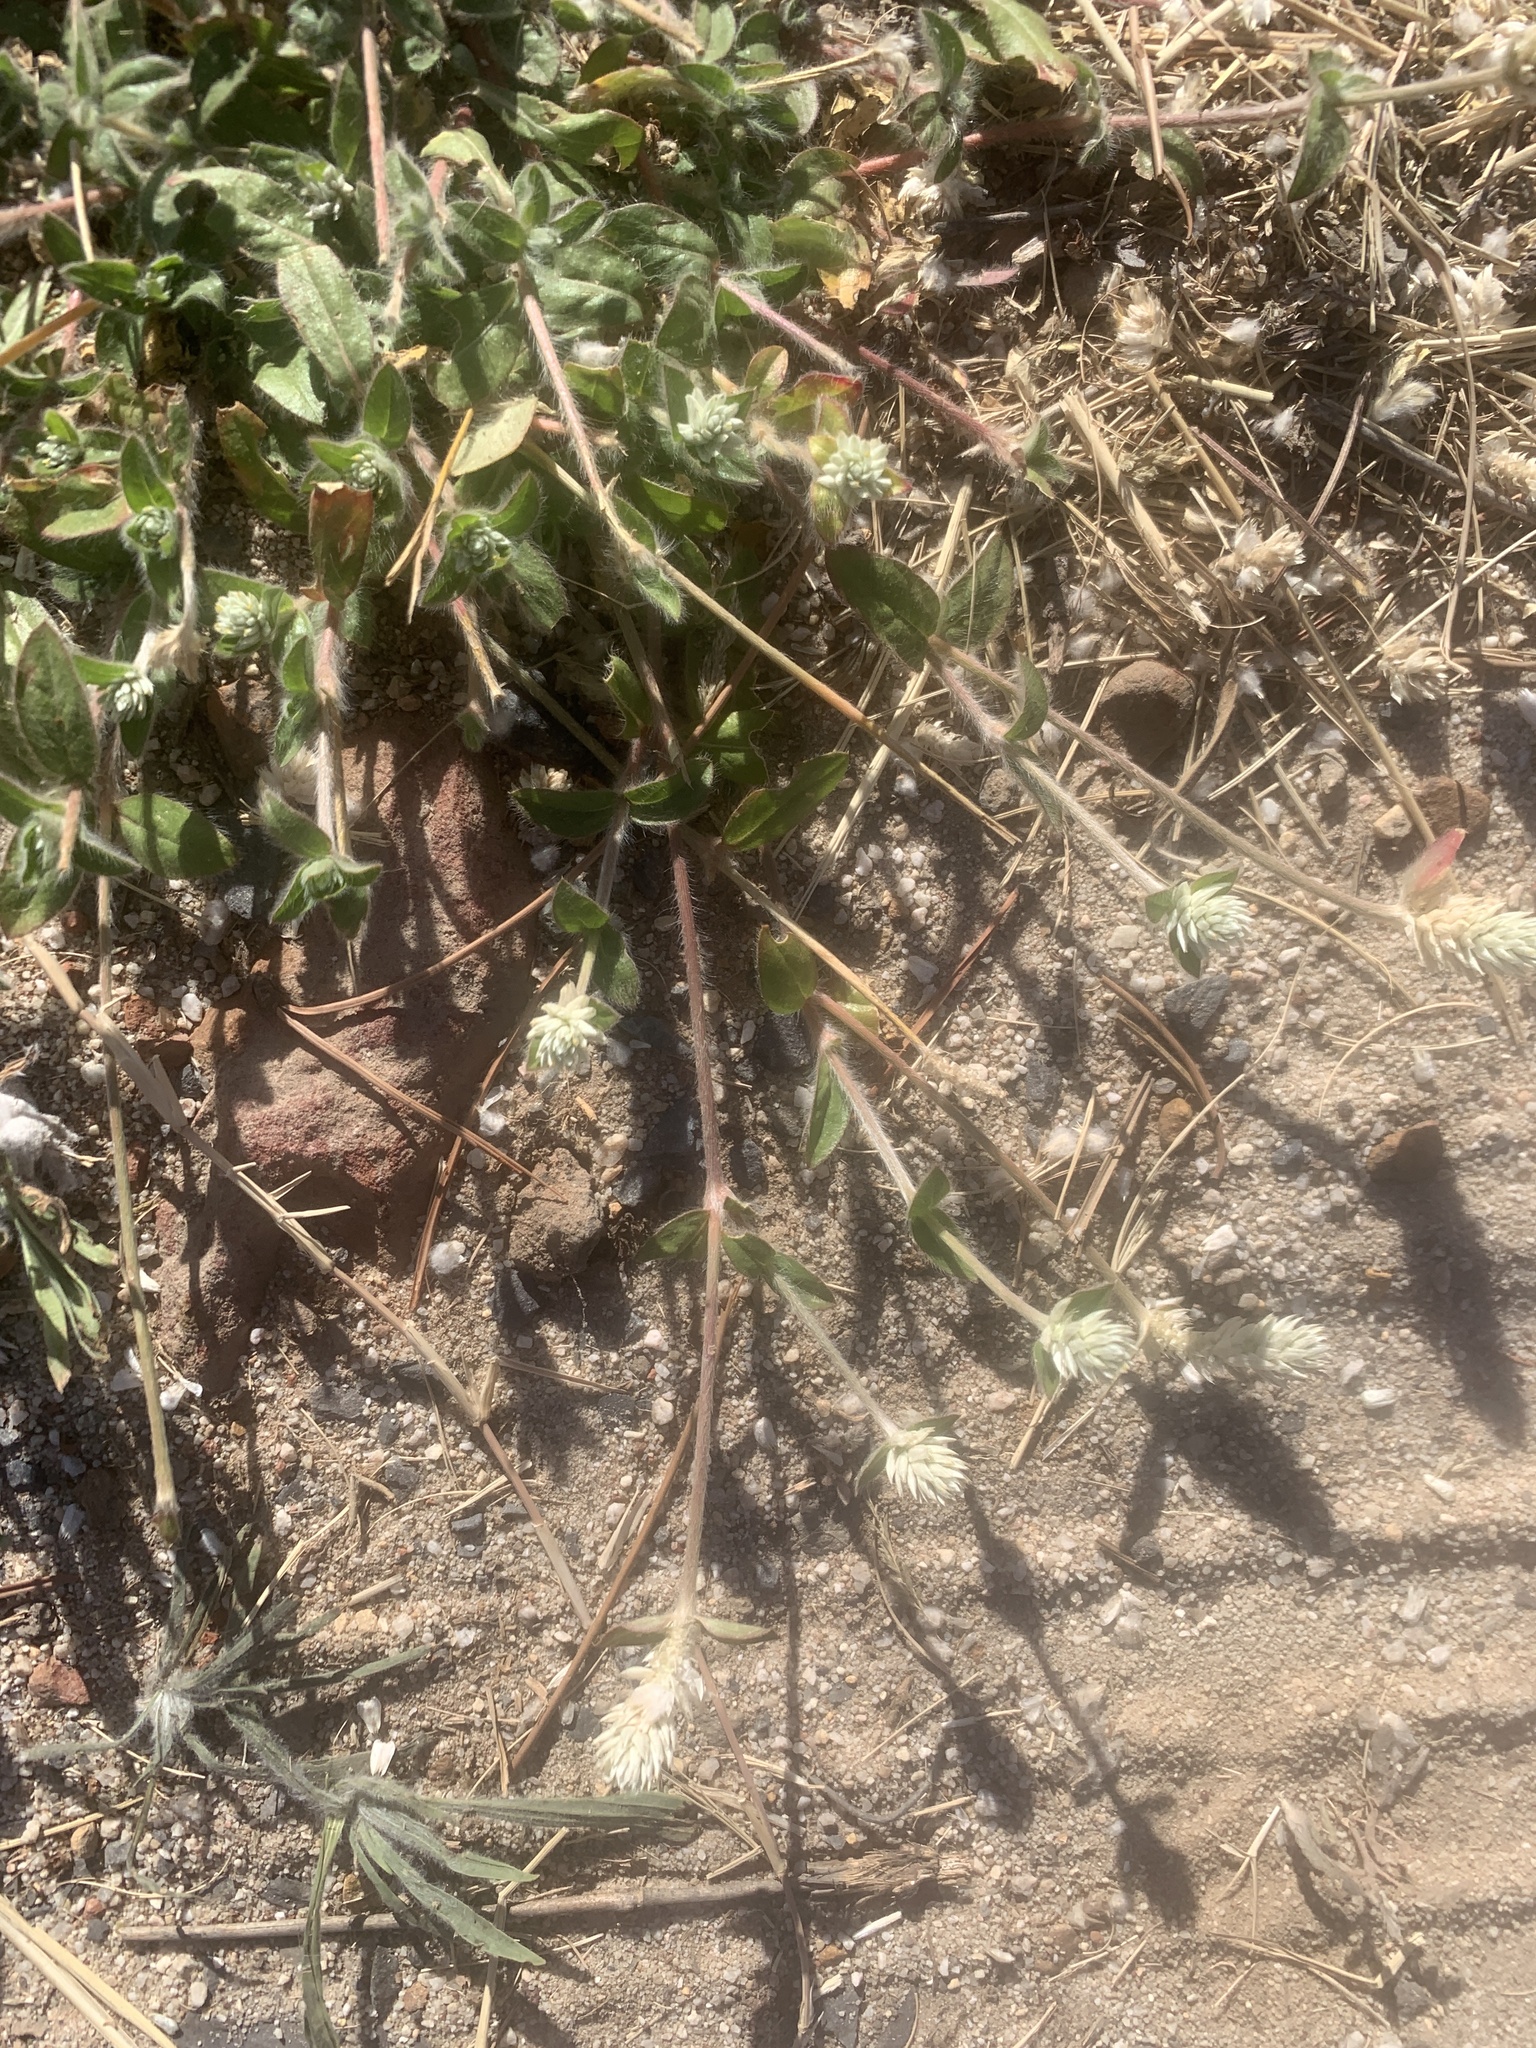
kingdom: Plantae
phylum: Tracheophyta
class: Magnoliopsida
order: Caryophyllales
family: Amaranthaceae
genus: Gomphrena
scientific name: Gomphrena celosioides
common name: Gomphrena-weed
